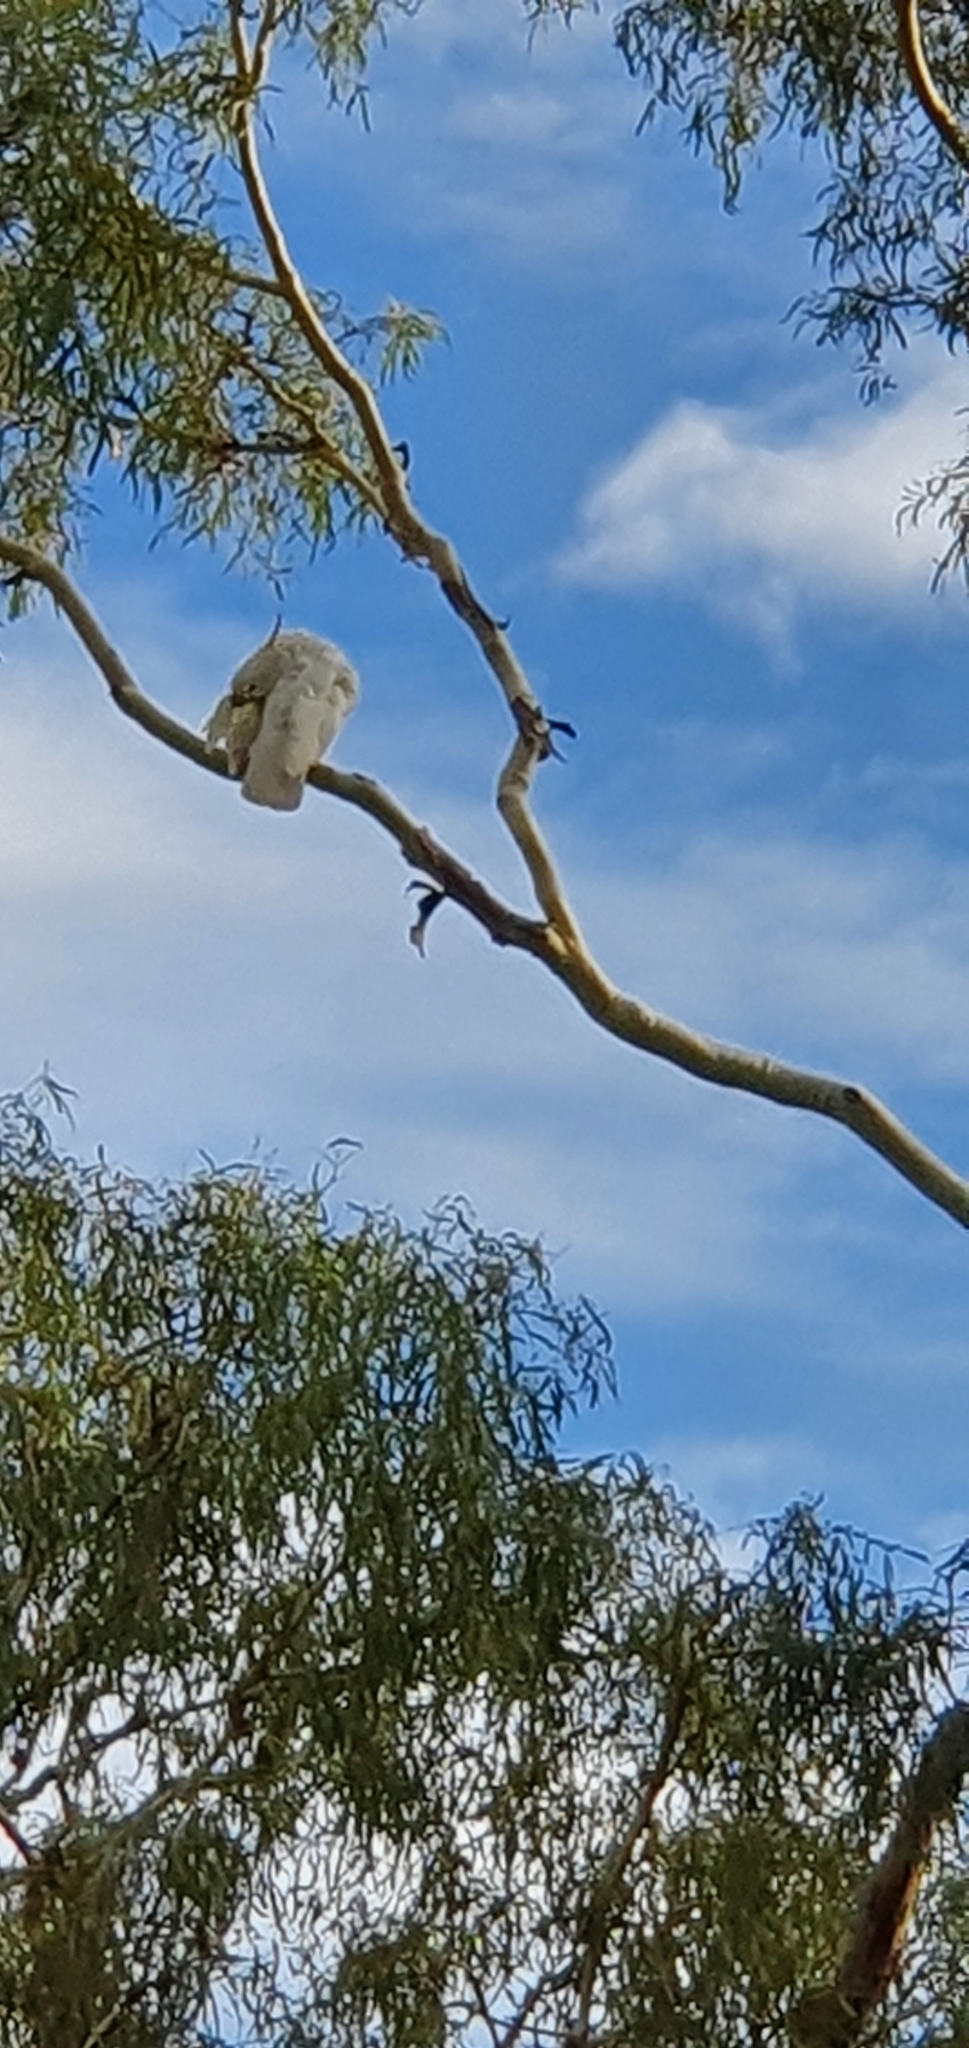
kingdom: Animalia
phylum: Chordata
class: Aves
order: Psittaciformes
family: Psittacidae
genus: Cacatua
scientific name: Cacatua galerita
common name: Sulphur-crested cockatoo
